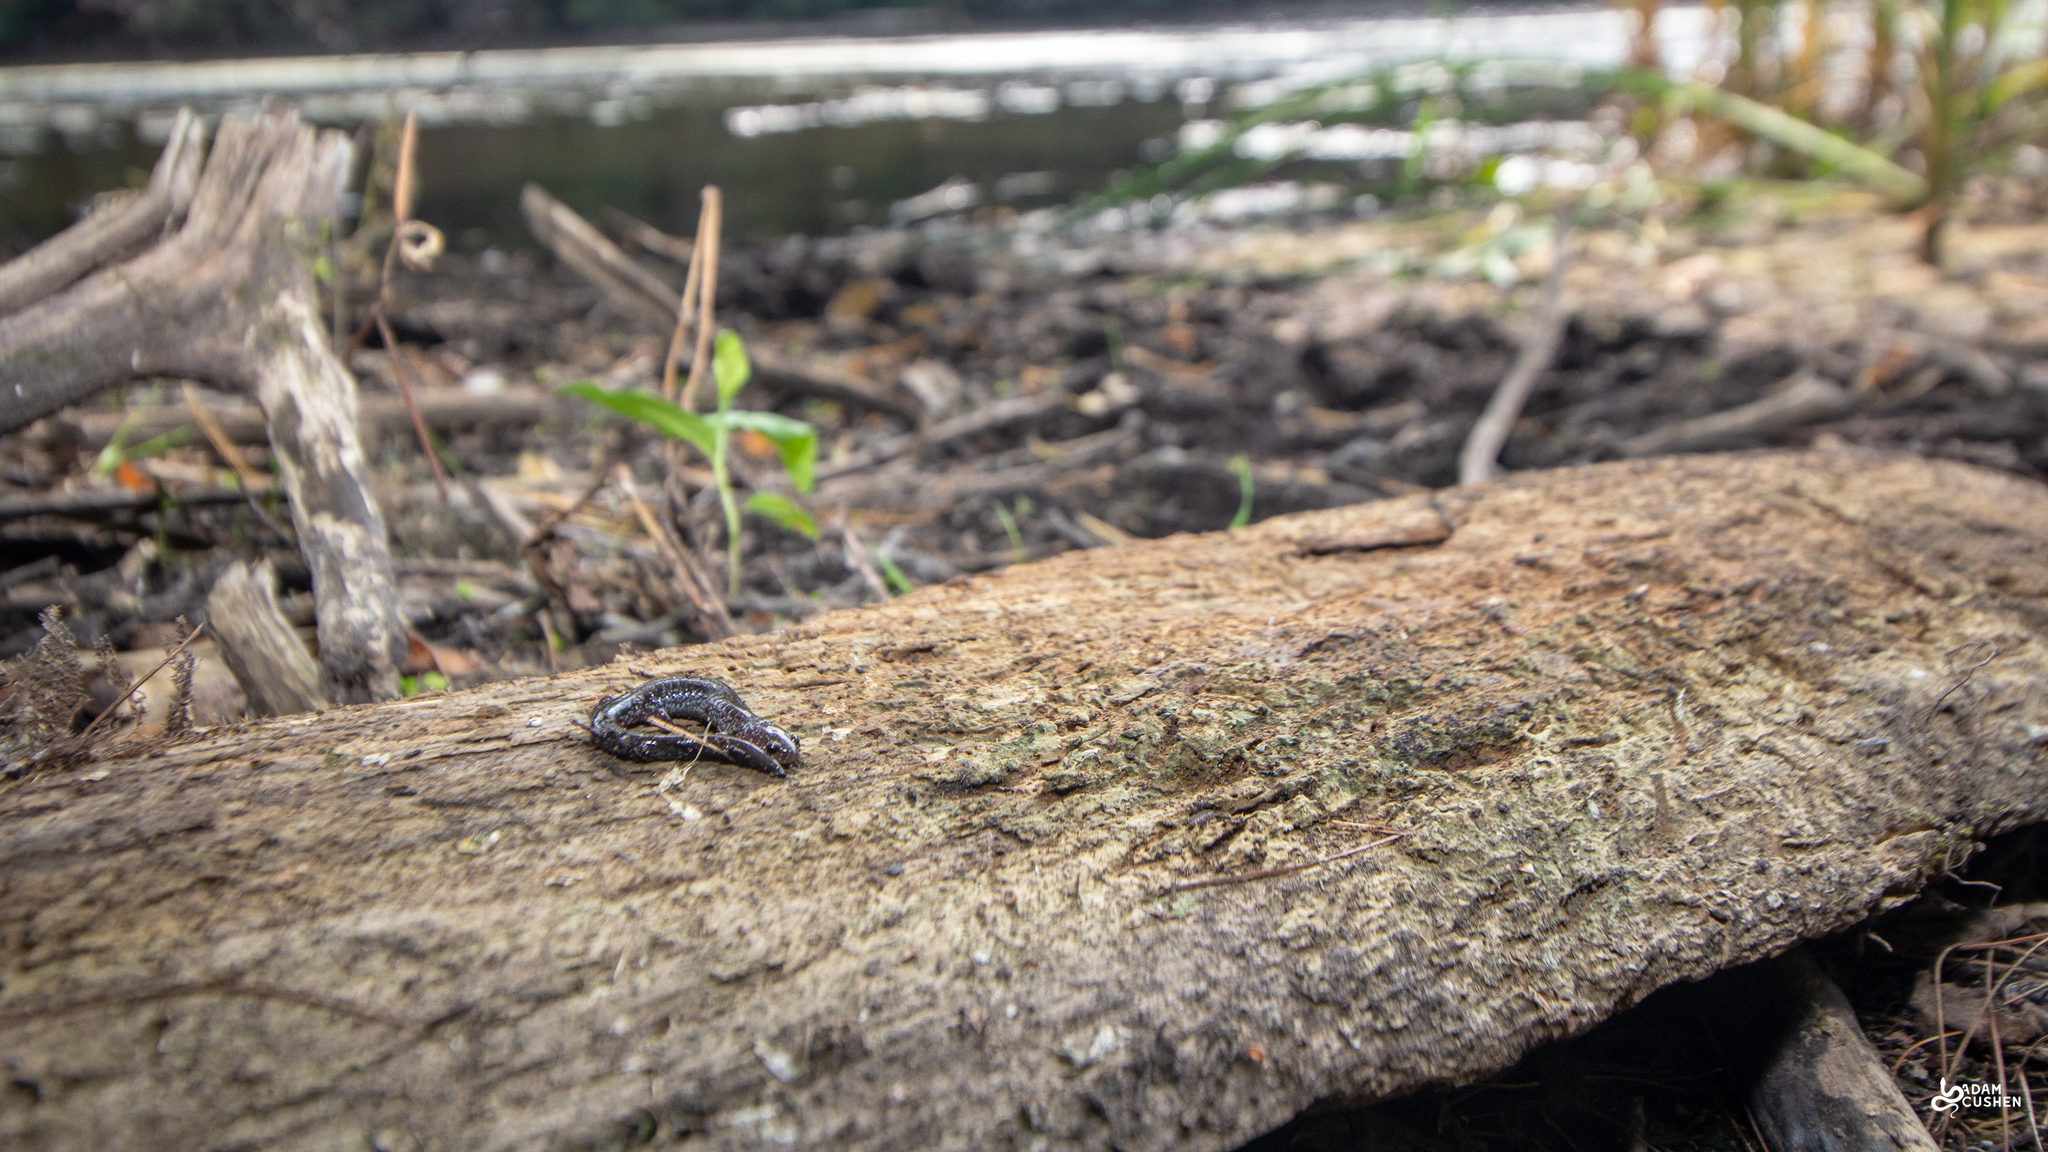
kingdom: Animalia
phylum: Chordata
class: Amphibia
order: Caudata
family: Plethodontidae
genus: Plethodon
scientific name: Plethodon cinereus
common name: Redback salamander
